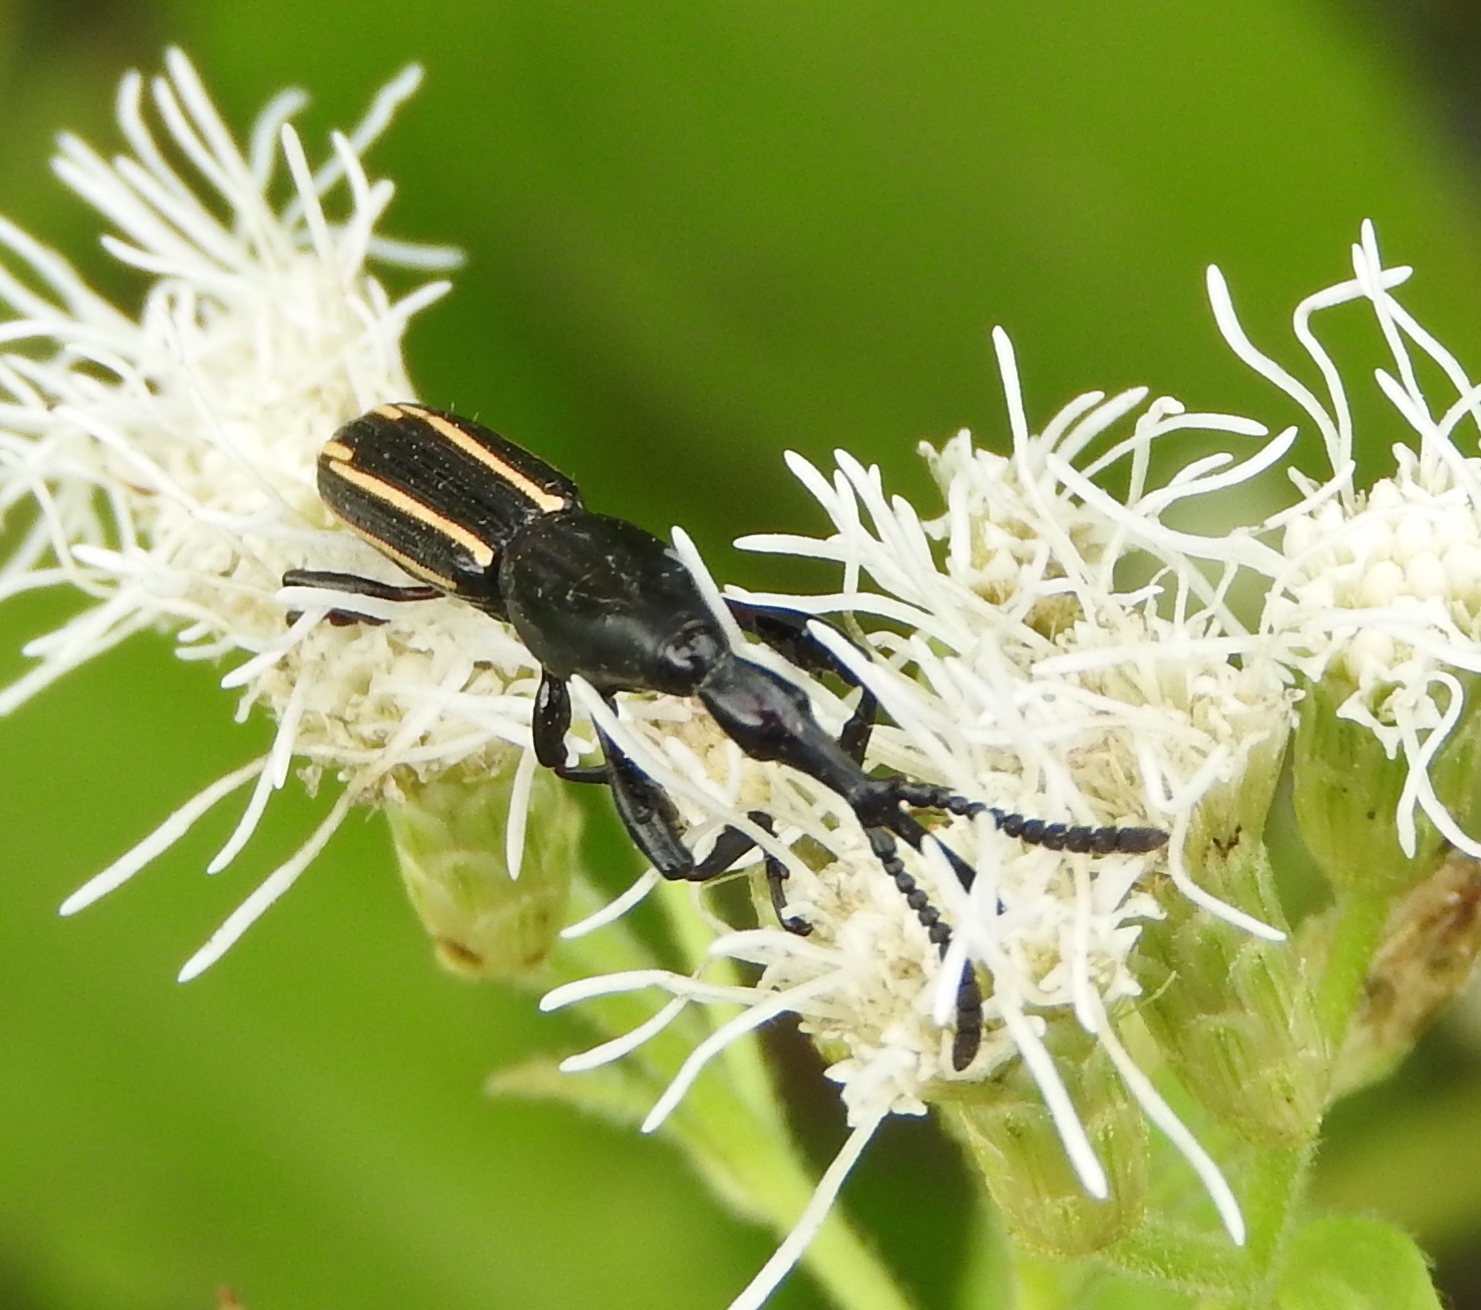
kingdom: Animalia
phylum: Arthropoda
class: Insecta
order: Coleoptera
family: Brentidae
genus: Brentus
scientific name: Brentus anchorago
